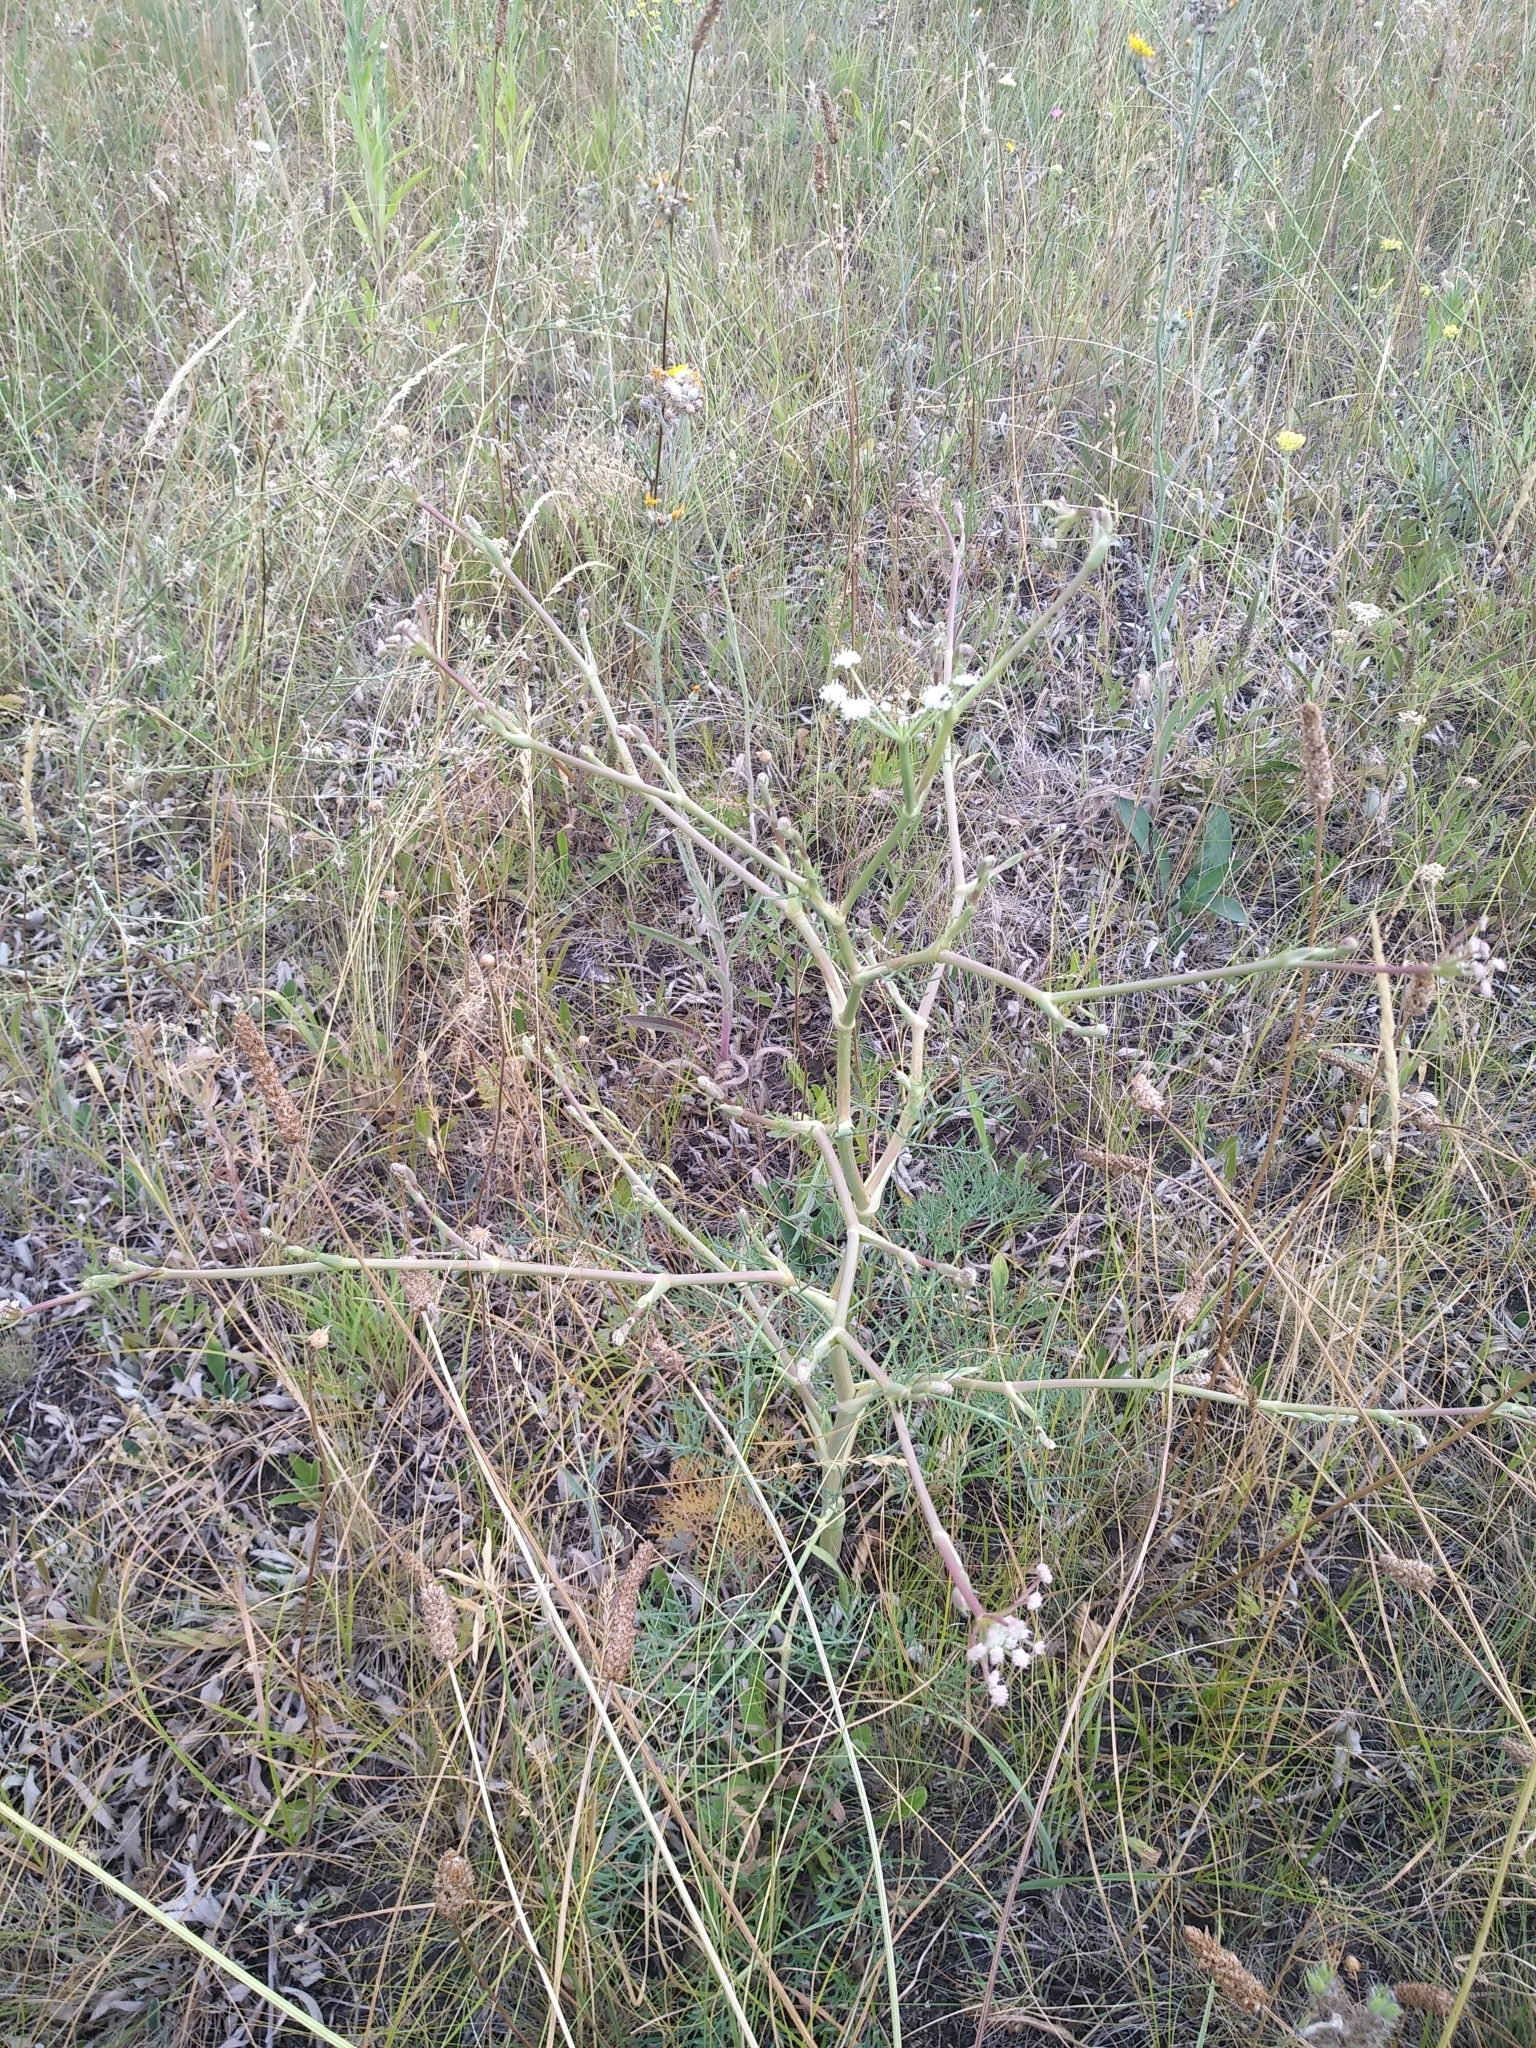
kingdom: Plantae
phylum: Tracheophyta
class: Magnoliopsida
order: Apiales
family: Apiaceae
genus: Seseli
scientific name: Seseli arenarium
